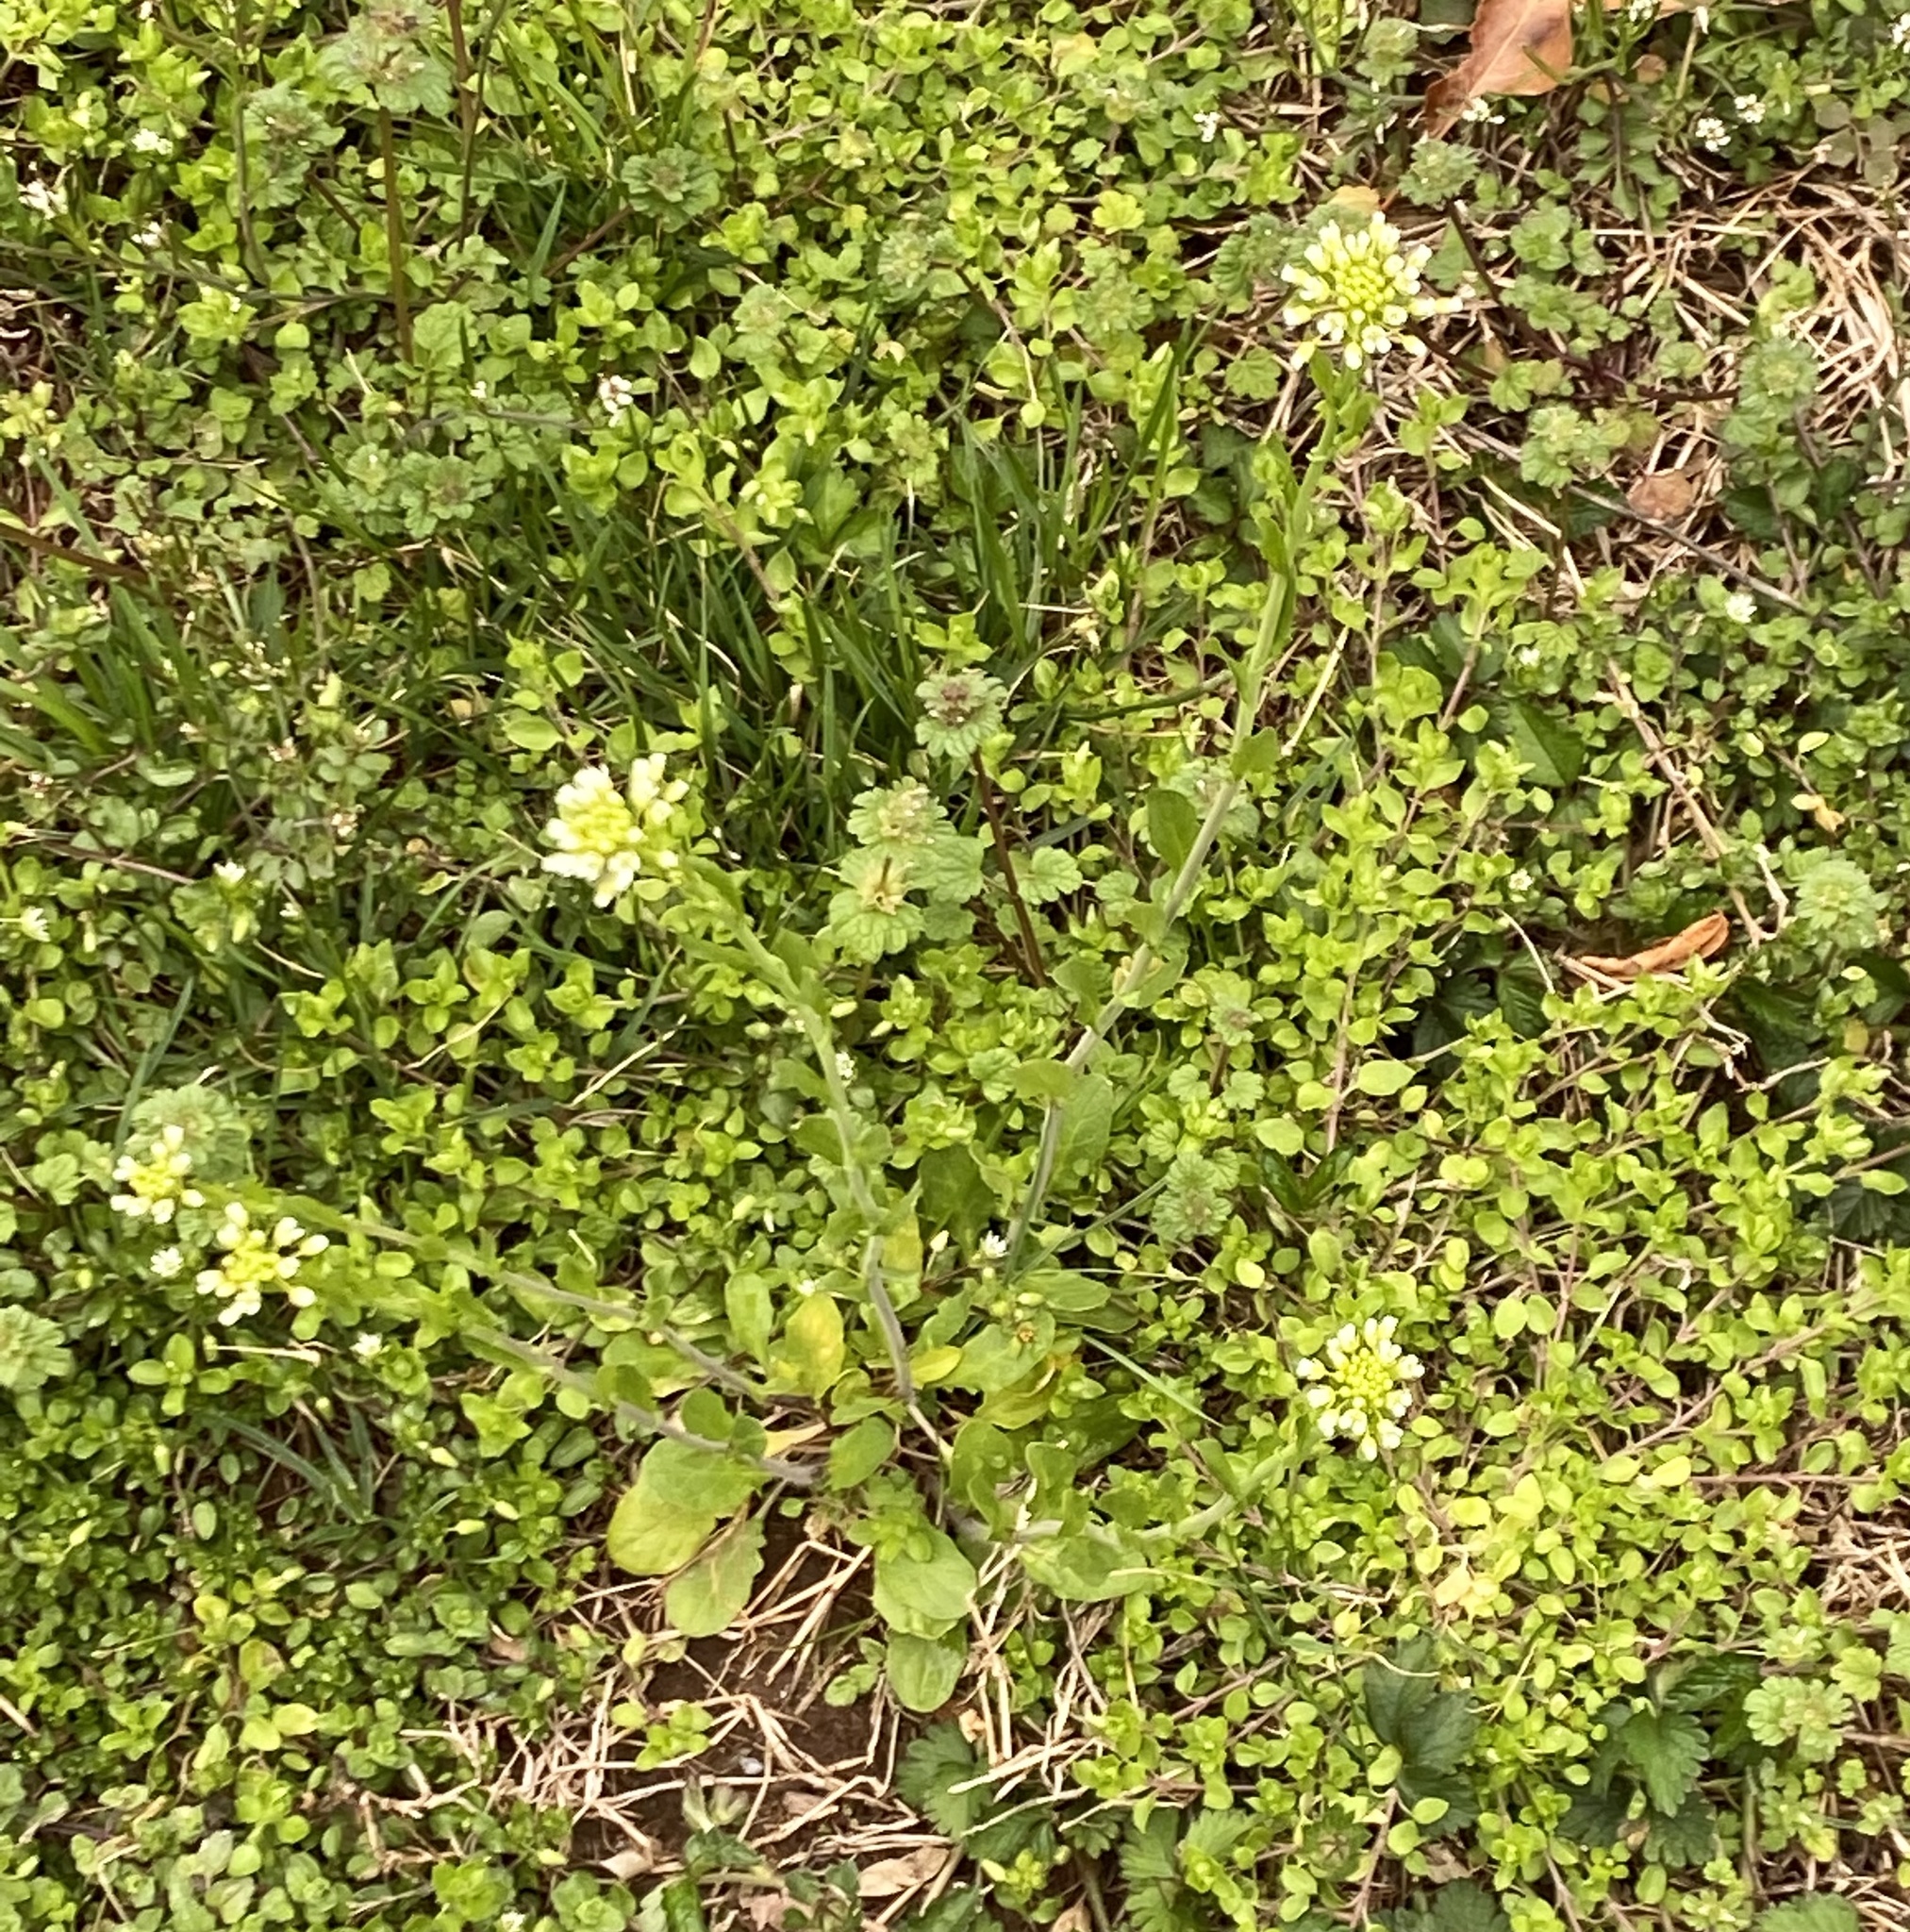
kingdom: Plantae
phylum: Tracheophyta
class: Magnoliopsida
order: Brassicales
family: Brassicaceae
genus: Mummenhoffia
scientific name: Mummenhoffia alliacea
